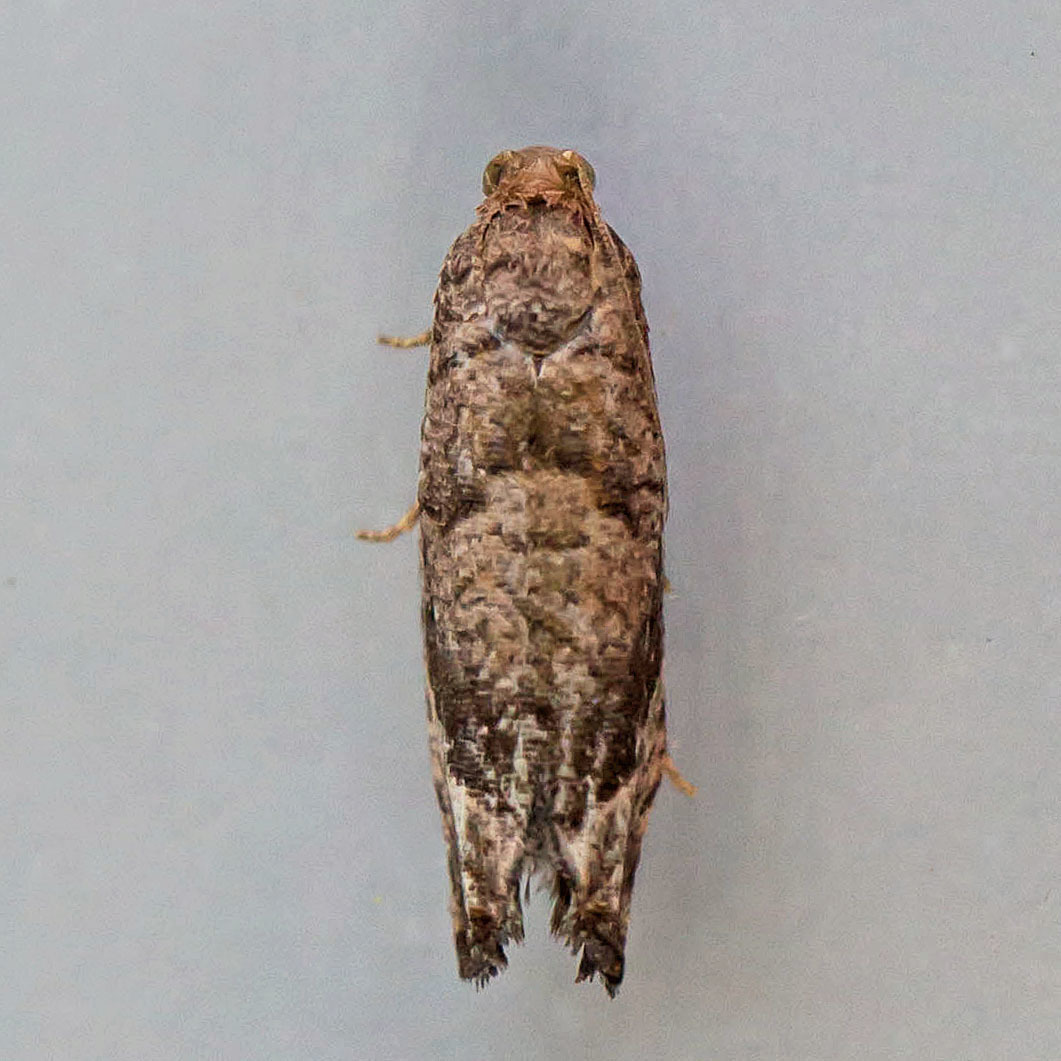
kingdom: Animalia
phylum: Arthropoda
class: Insecta
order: Lepidoptera
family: Tortricidae
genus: Pelochrista
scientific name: Pelochrista derelicta
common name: Derelict pelochrista moth
